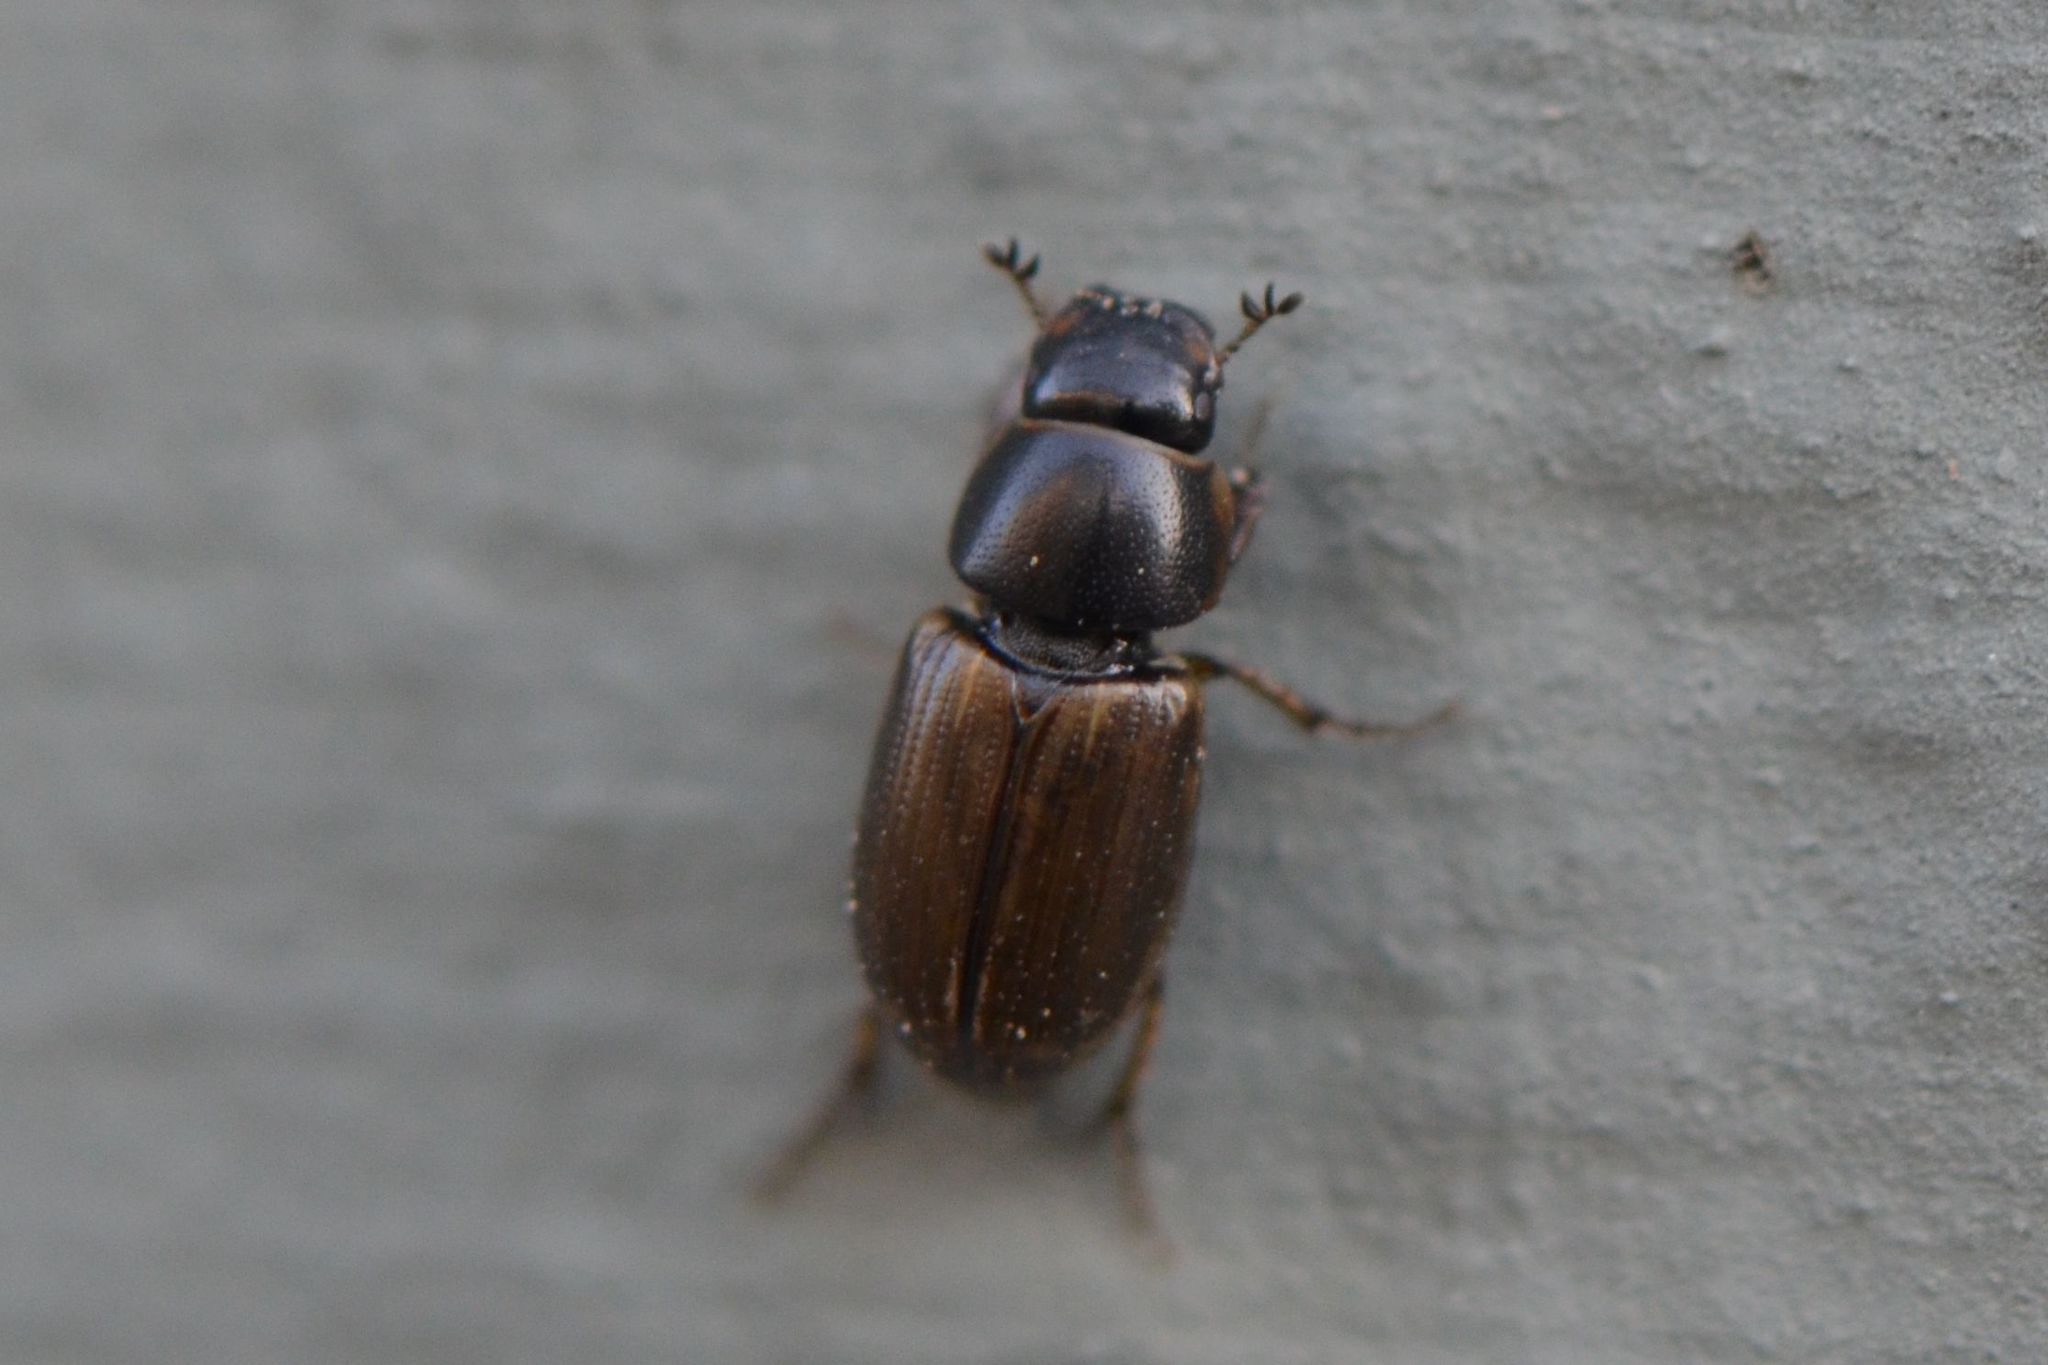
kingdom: Animalia
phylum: Arthropoda
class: Insecta
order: Coleoptera
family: Scarabaeidae
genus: Melinopterus
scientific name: Melinopterus consputus
